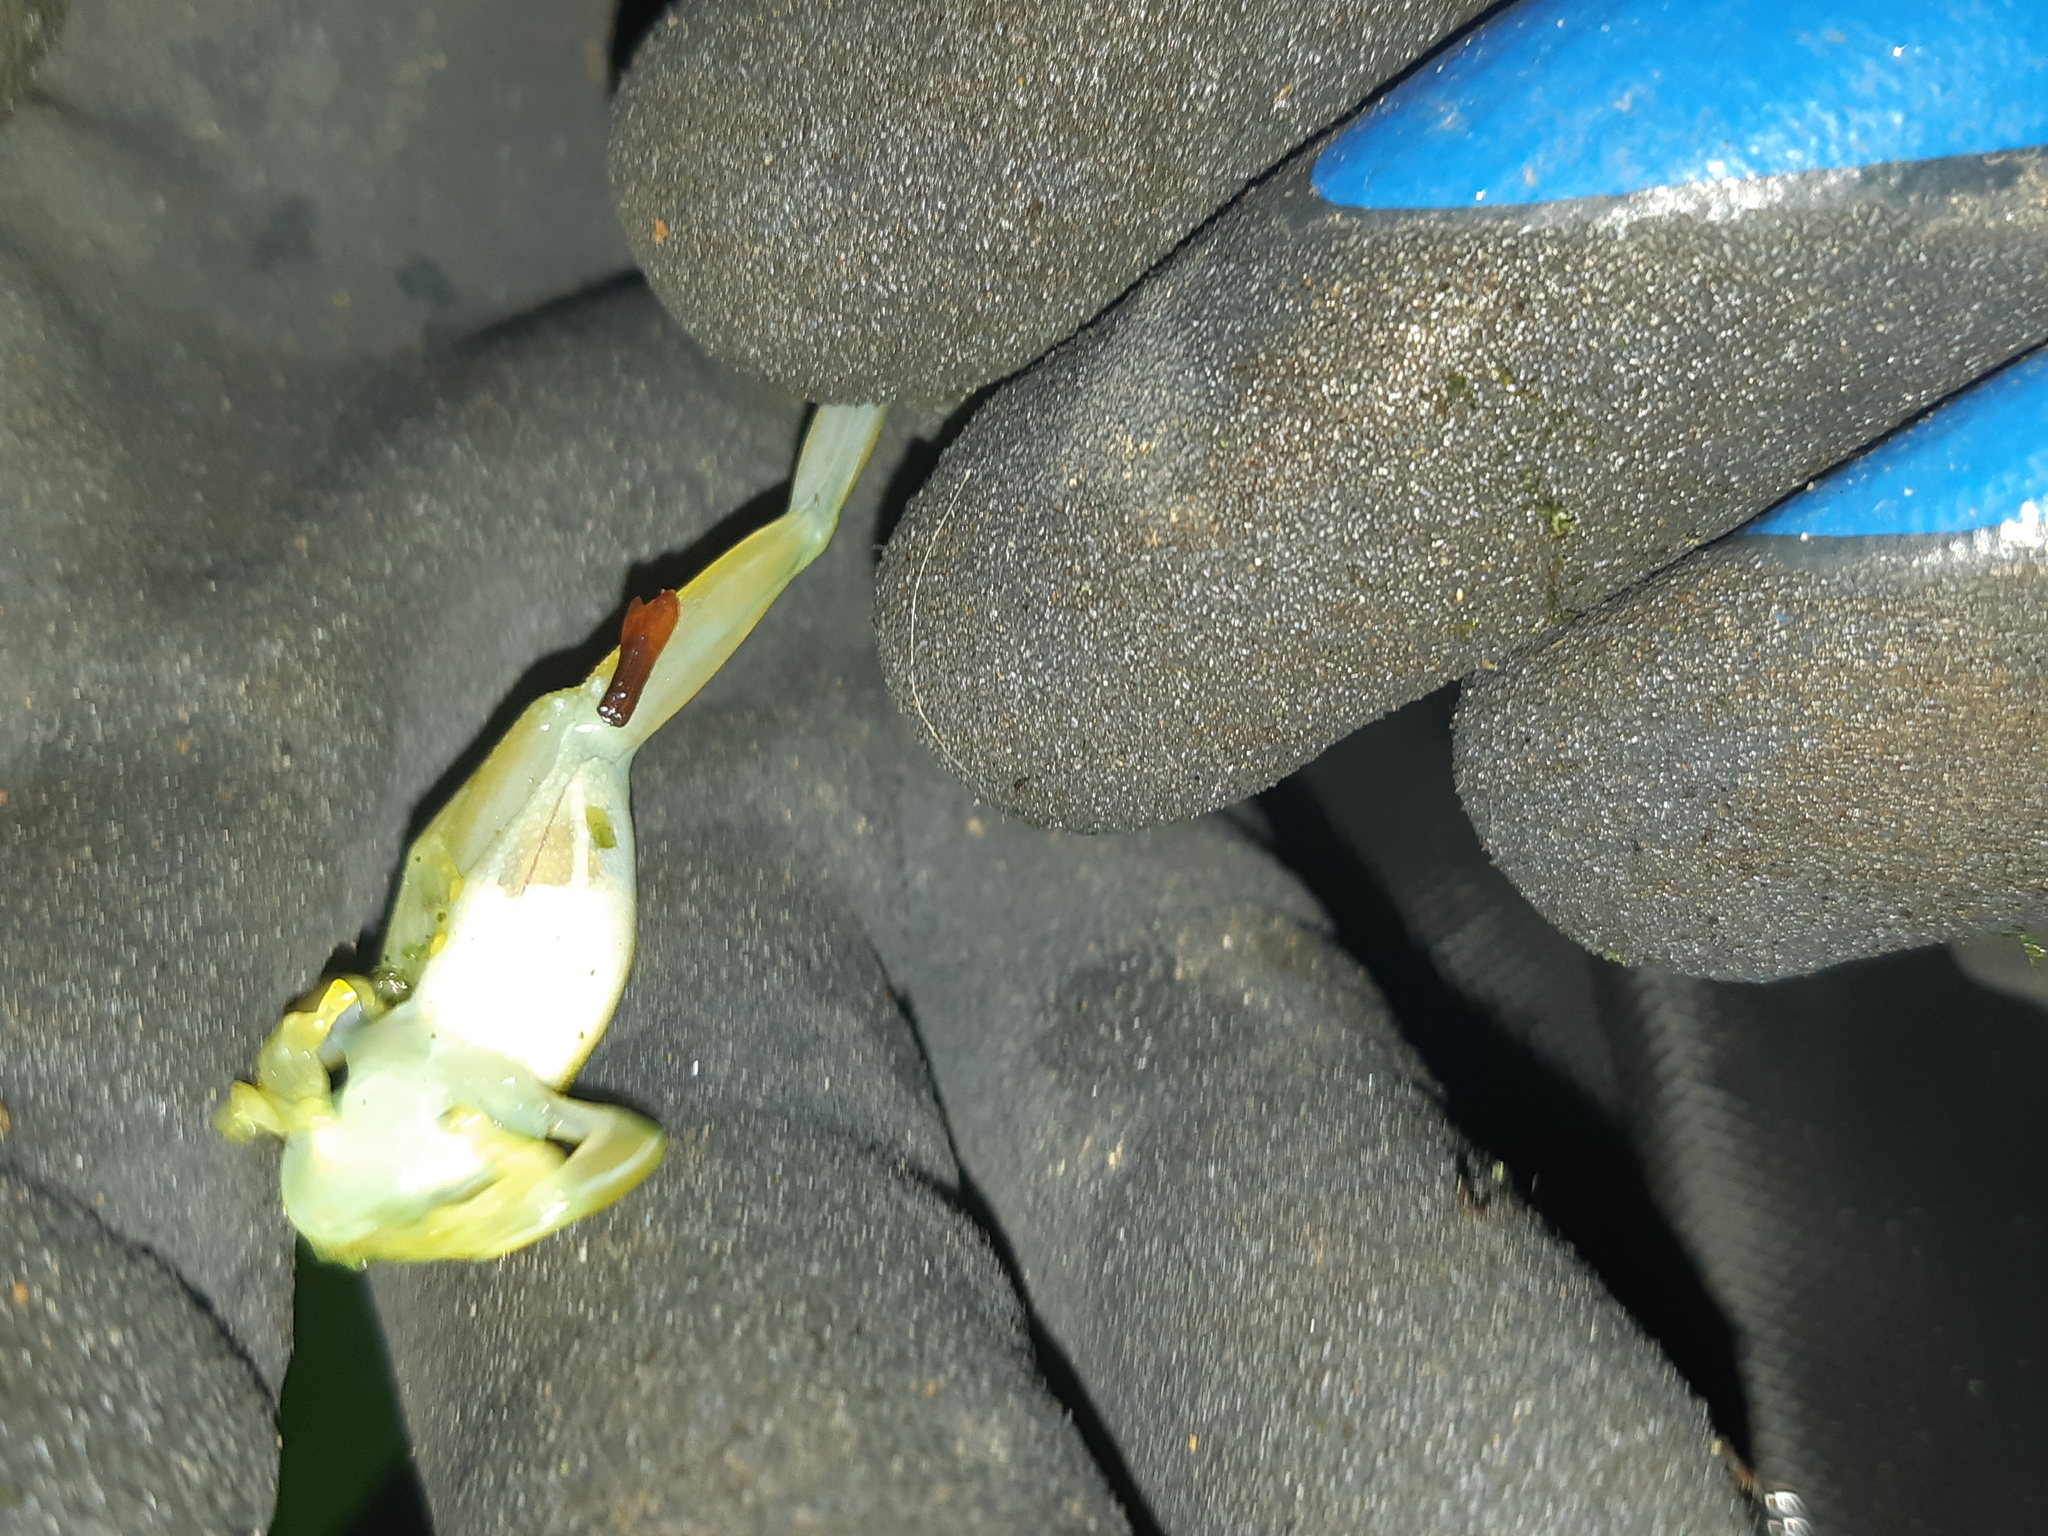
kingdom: Animalia
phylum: Chordata
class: Amphibia
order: Anura
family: Centrolenidae
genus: Espadarana
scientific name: Espadarana prosoblepon
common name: Rana de cristal variable
